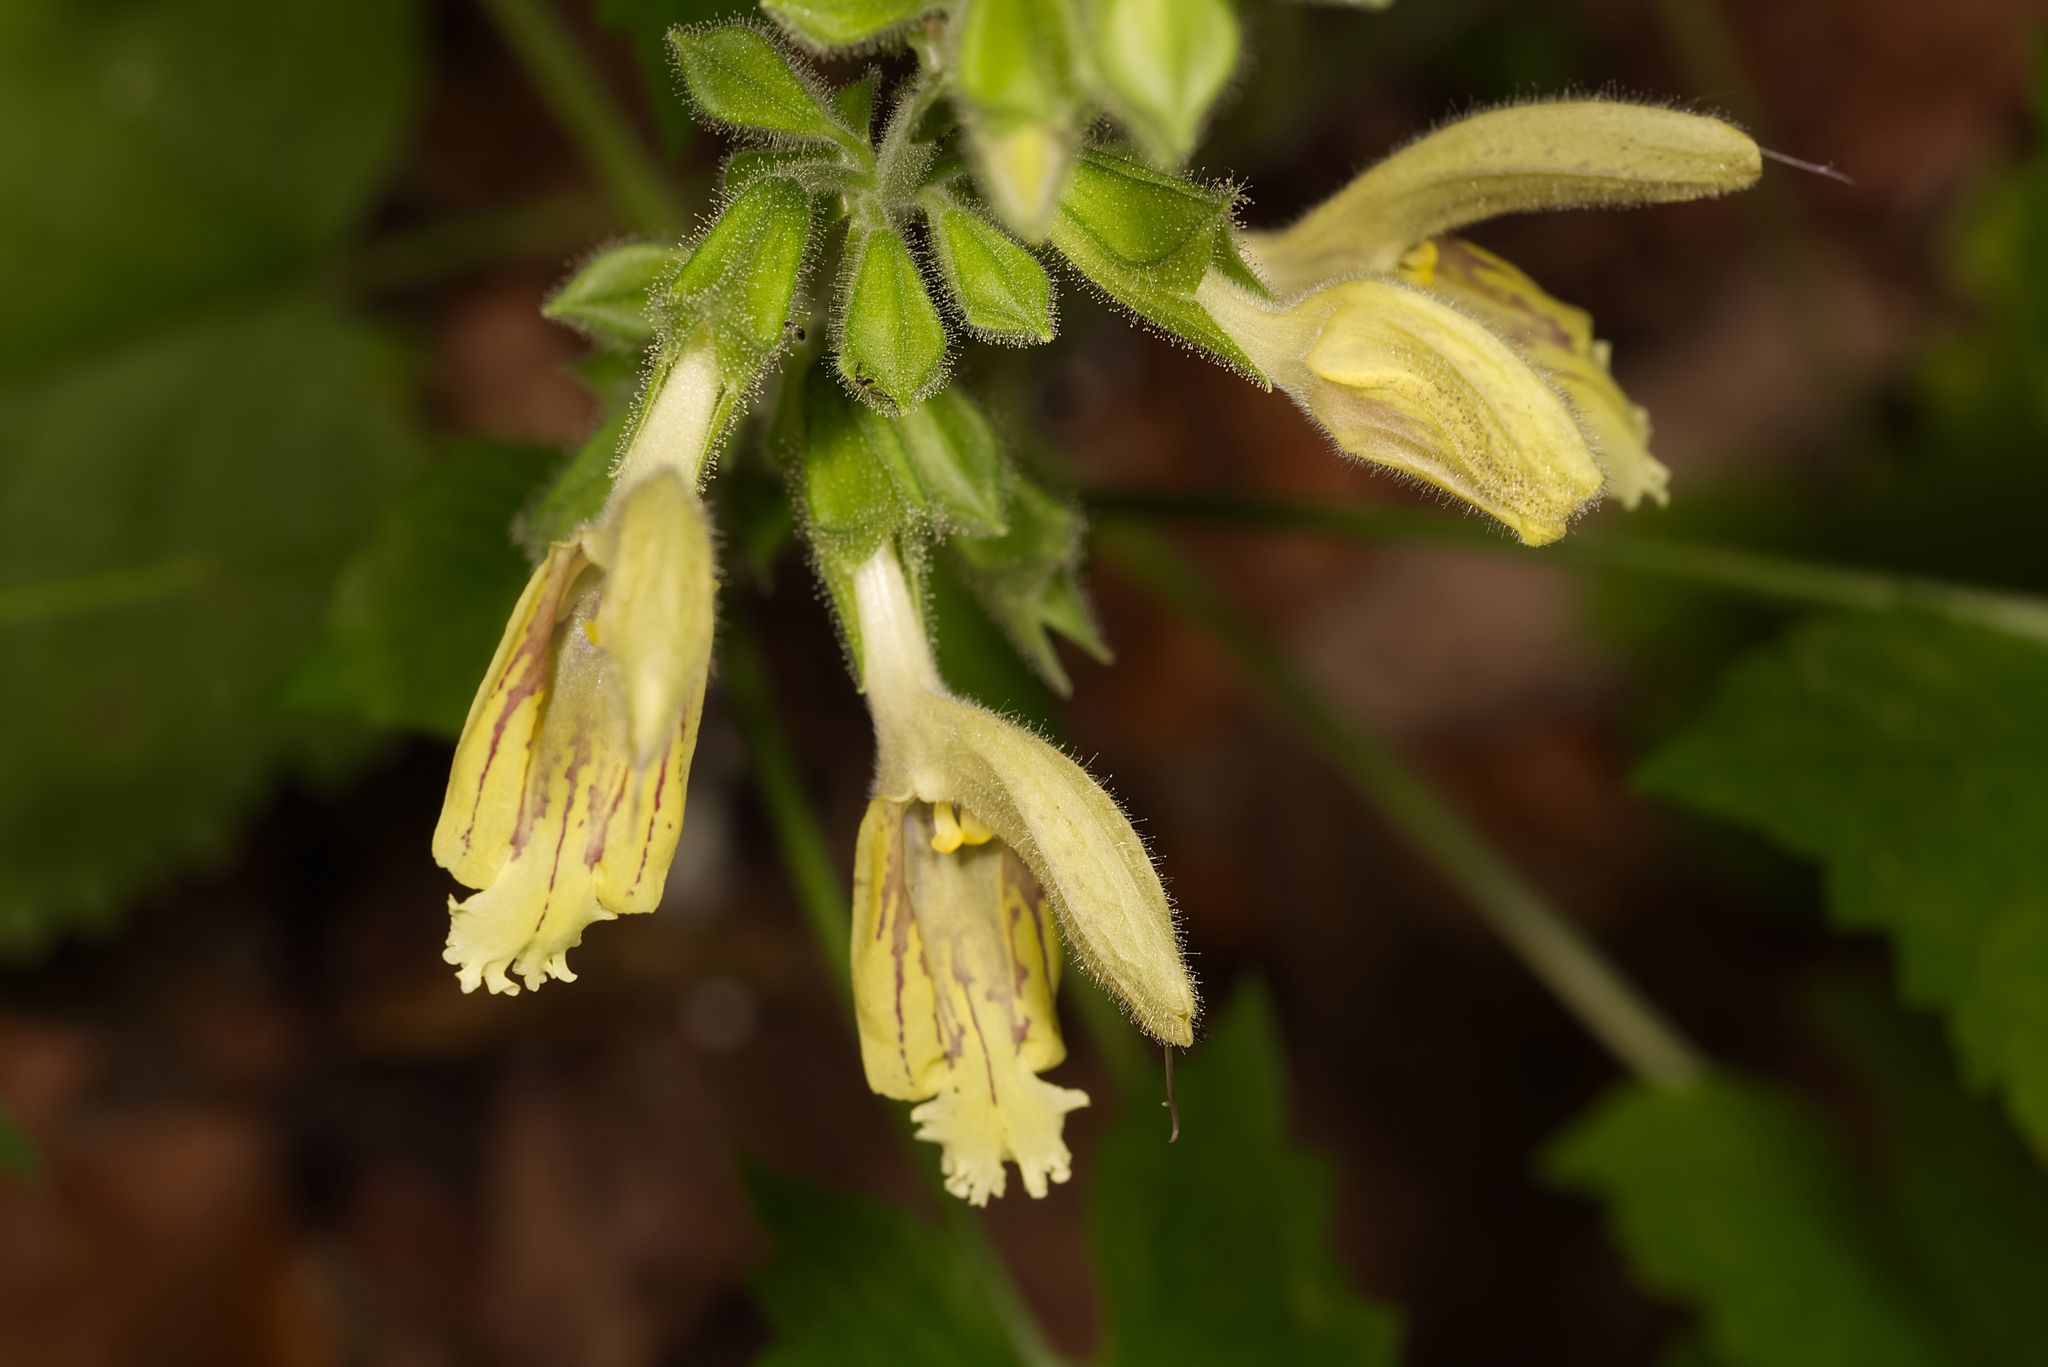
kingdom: Plantae
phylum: Tracheophyta
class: Magnoliopsida
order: Lamiales
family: Lamiaceae
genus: Salvia
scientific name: Salvia glutinosa
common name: Sticky clary
